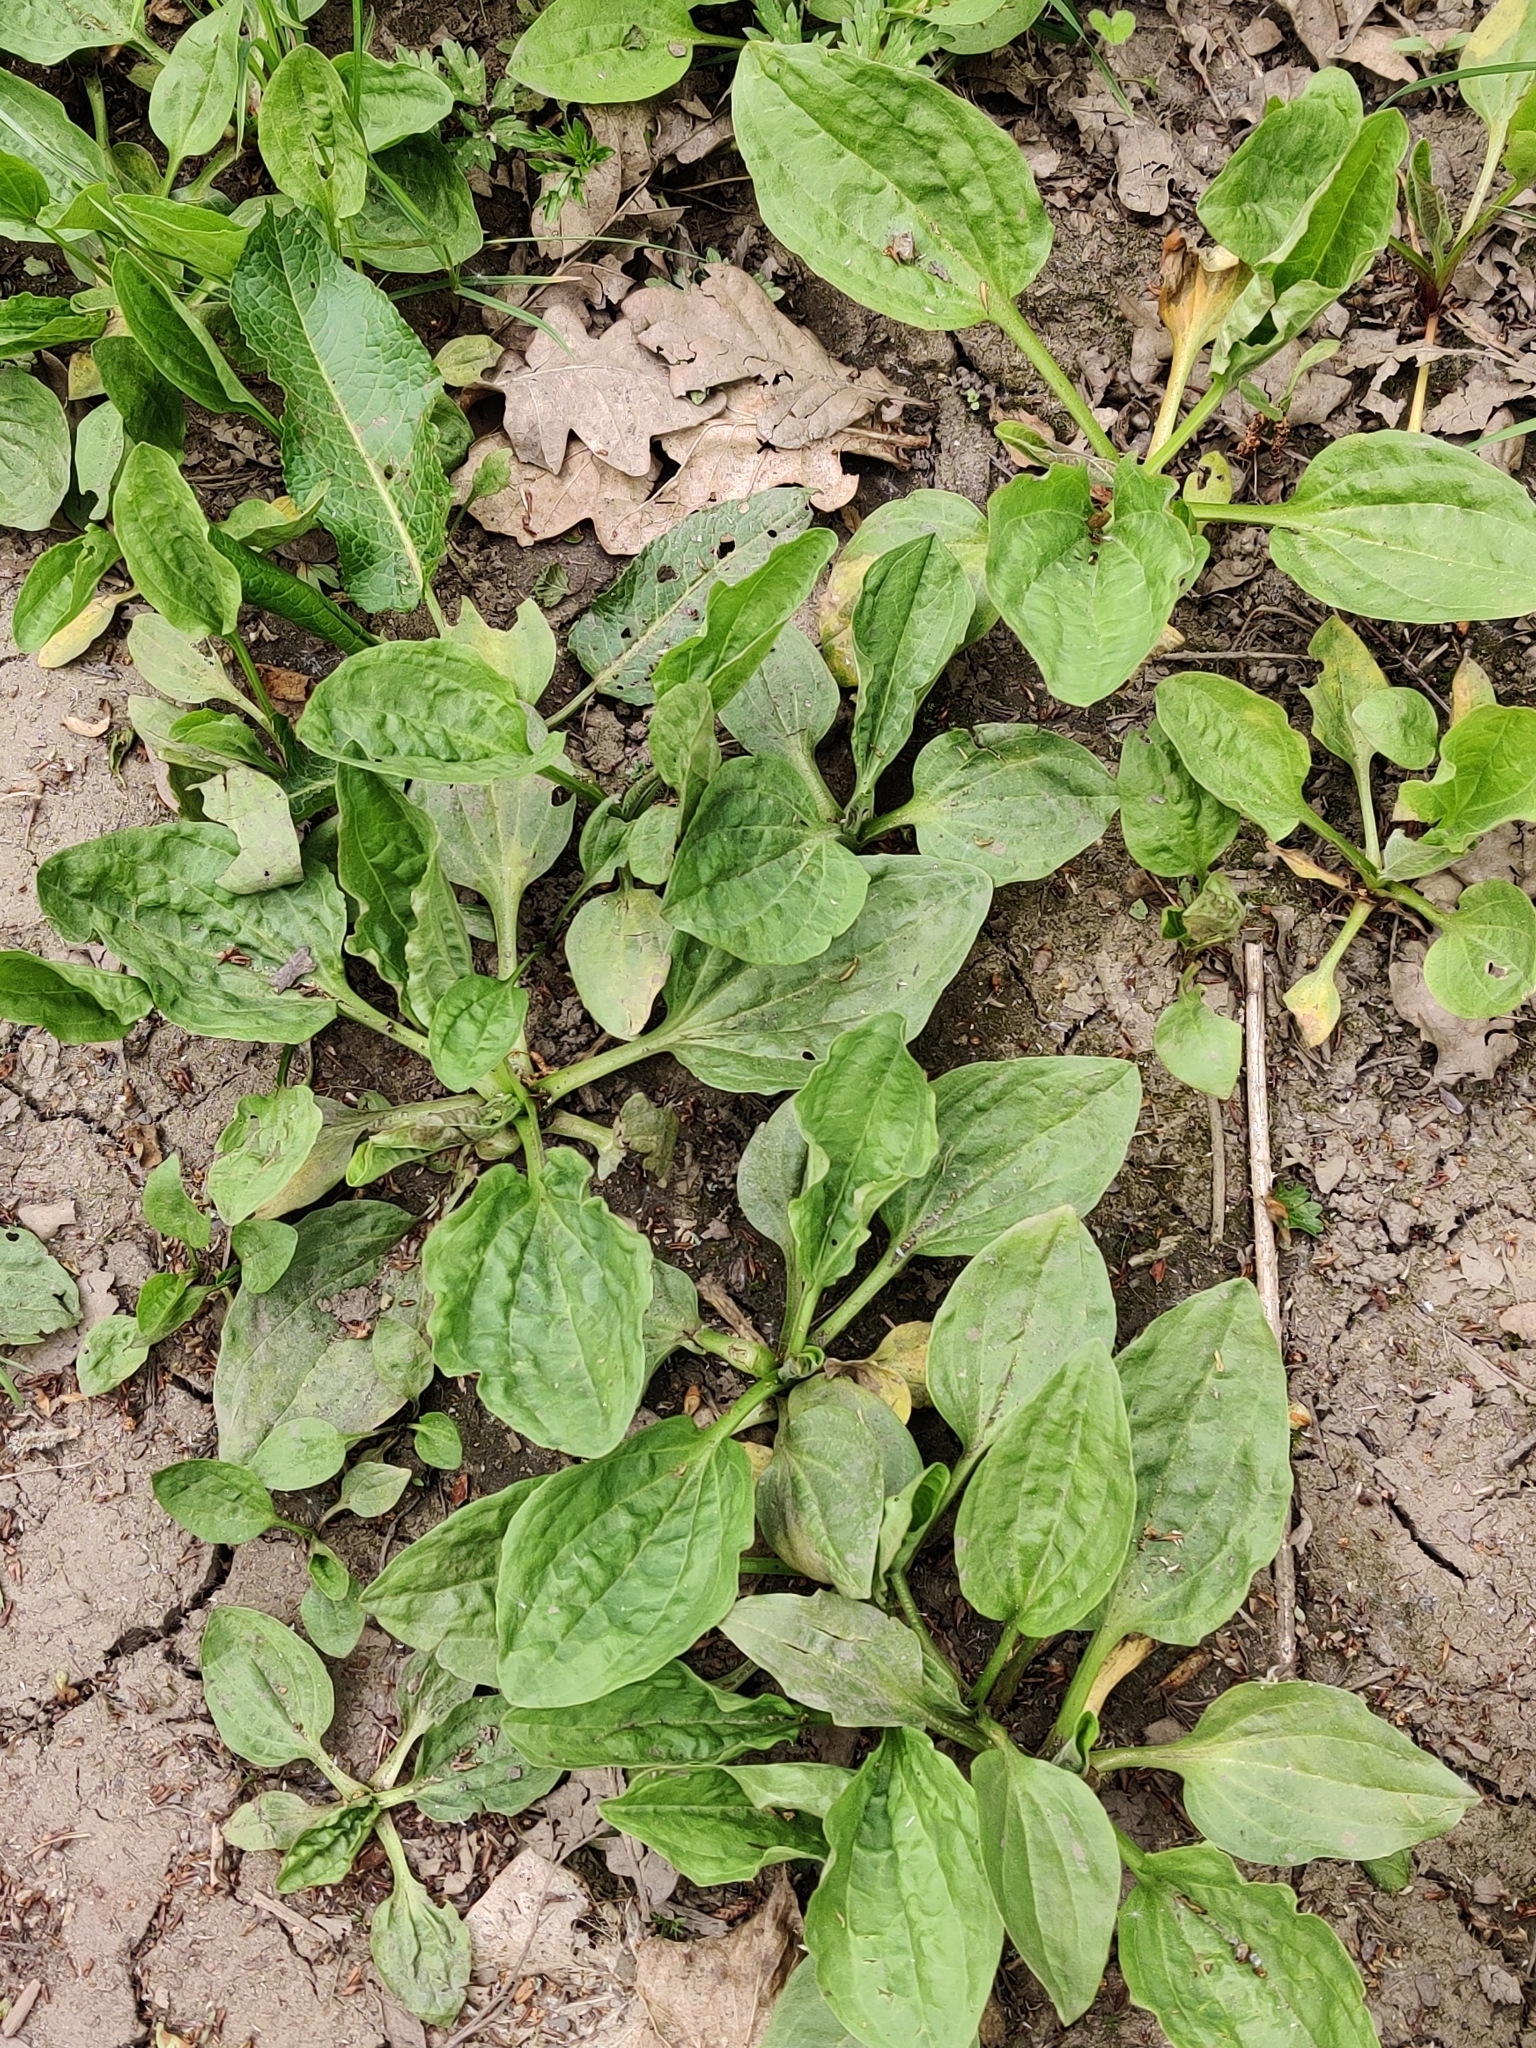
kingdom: Plantae
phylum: Tracheophyta
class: Magnoliopsida
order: Lamiales
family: Plantaginaceae
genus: Plantago
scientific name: Plantago major
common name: Common plantain
